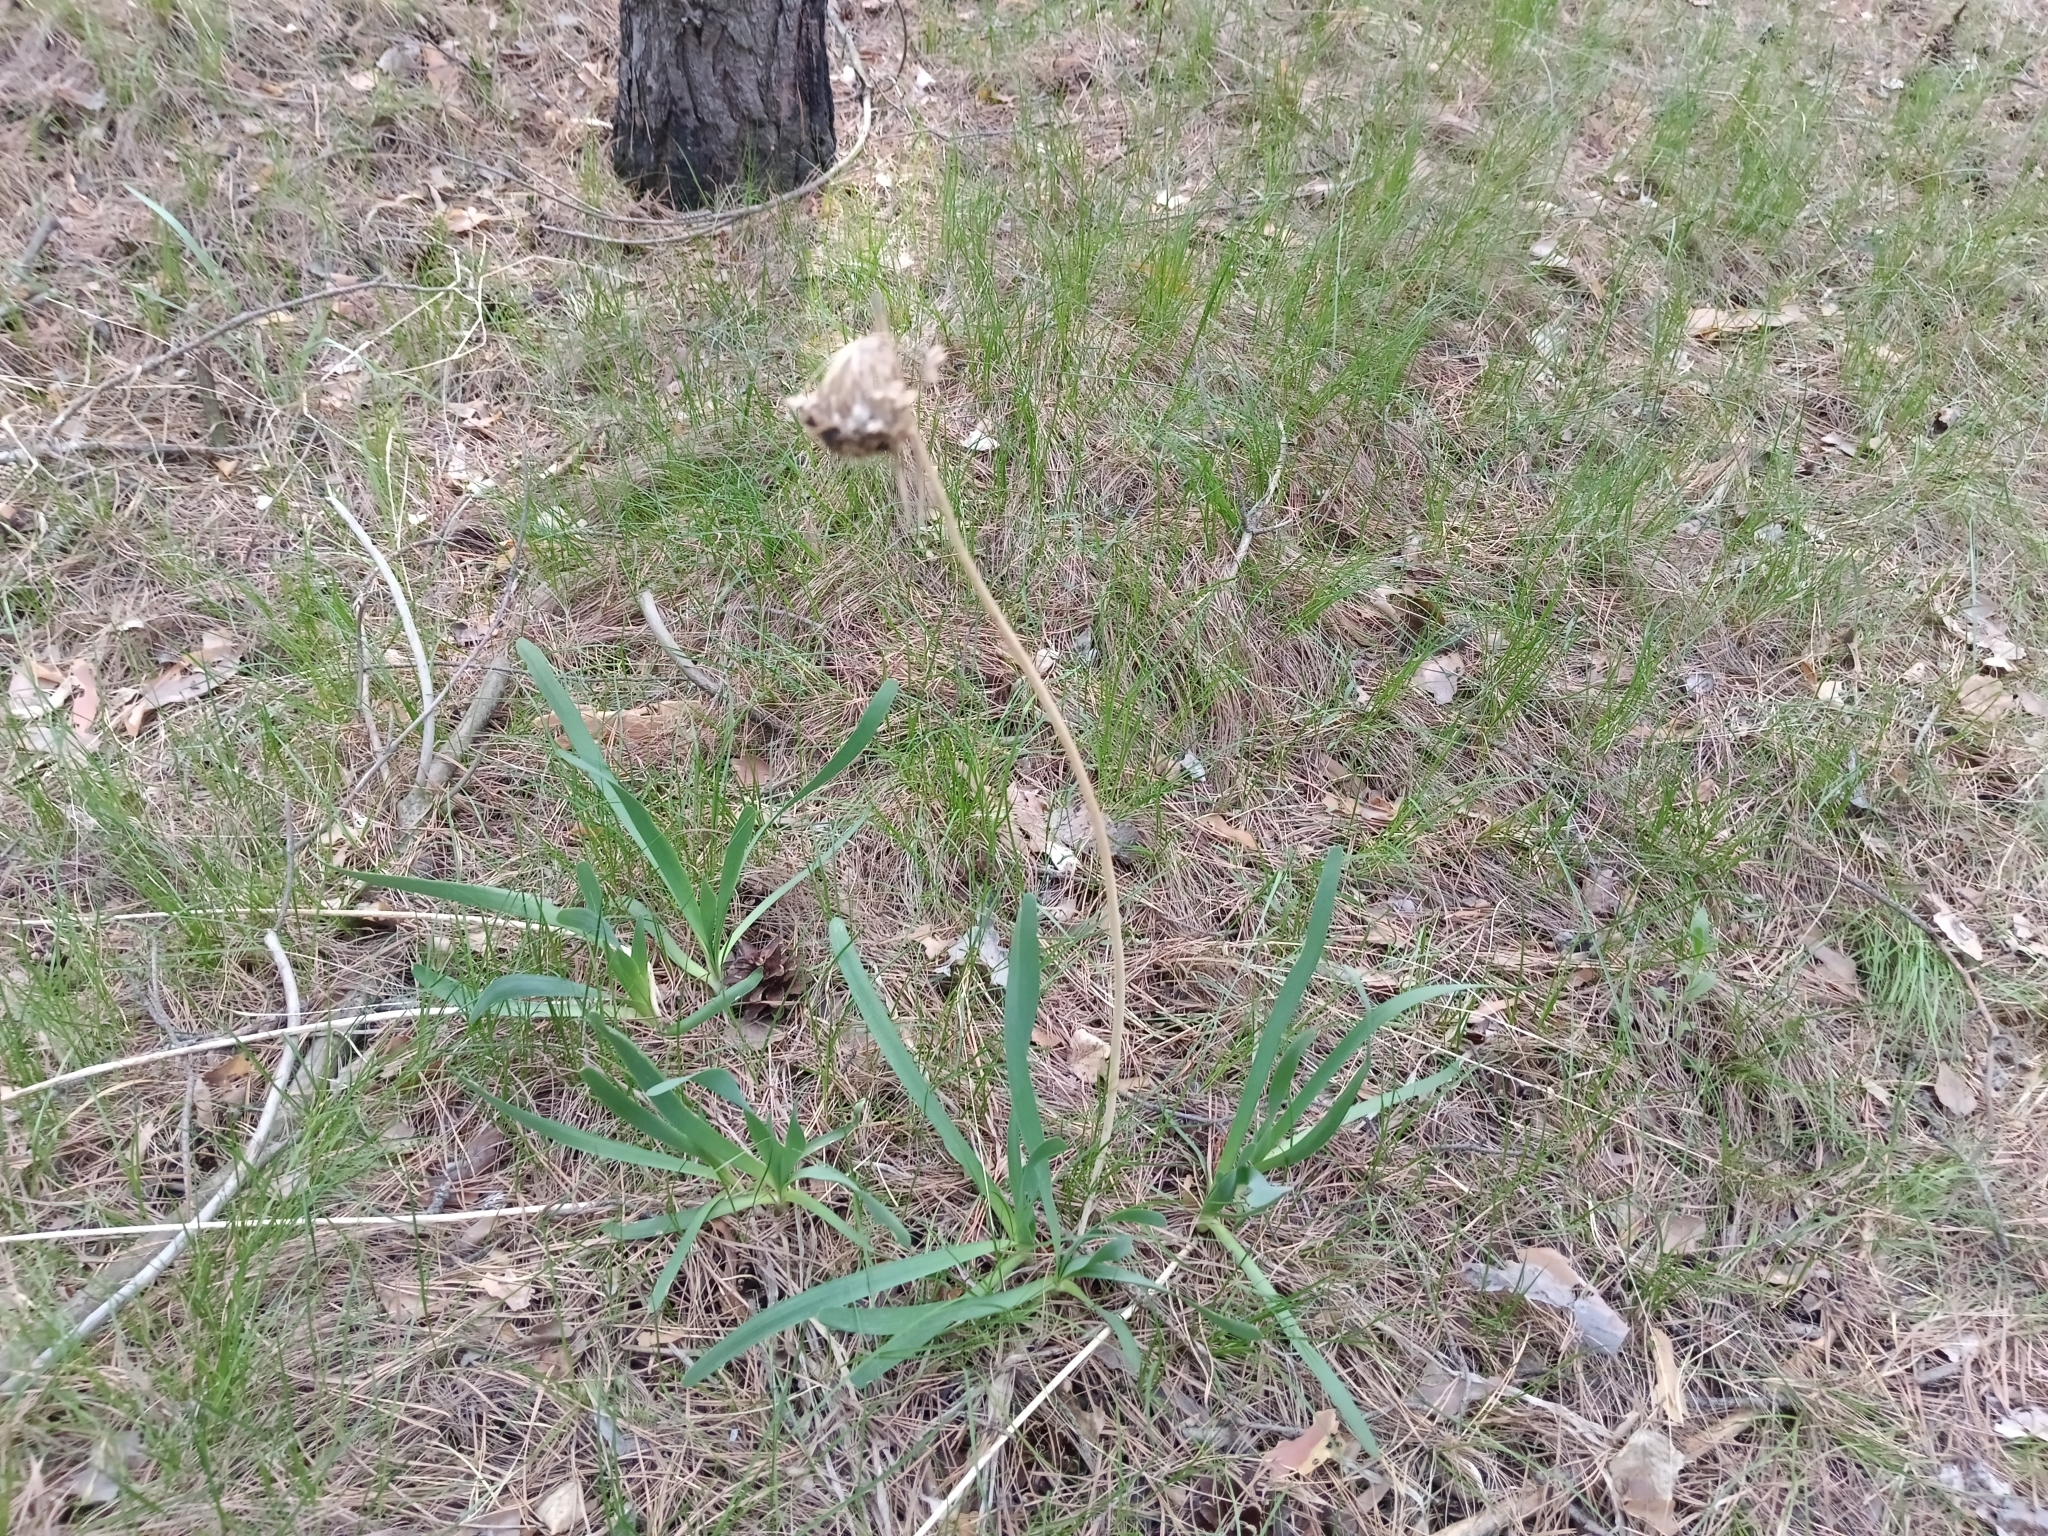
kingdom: Plantae
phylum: Tracheophyta
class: Liliopsida
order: Asparagales
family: Amaryllidaceae
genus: Allium
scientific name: Allium nutans
